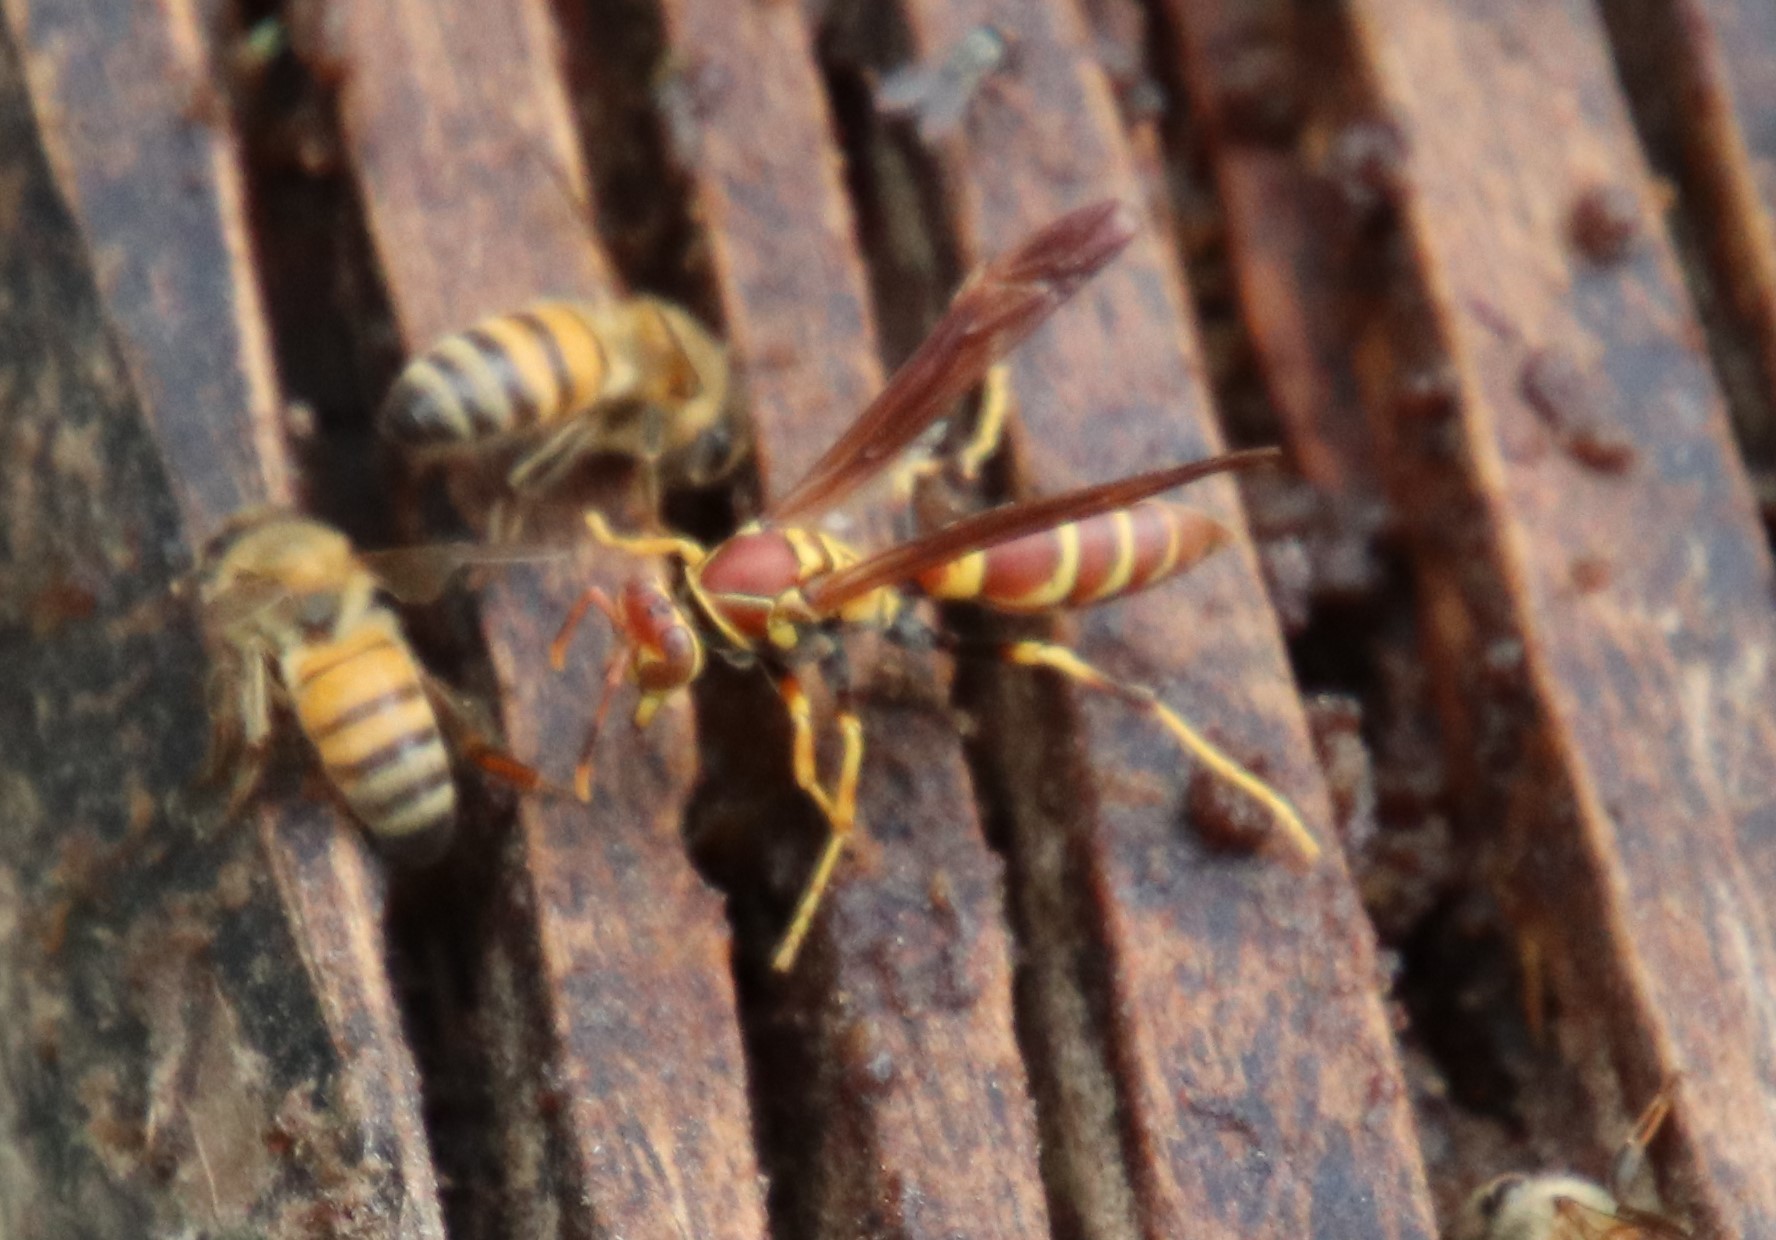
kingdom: Animalia
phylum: Arthropoda
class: Insecta
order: Hymenoptera
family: Eumenidae
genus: Polistes
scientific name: Polistes instabilis
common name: Unstable paper wasp
